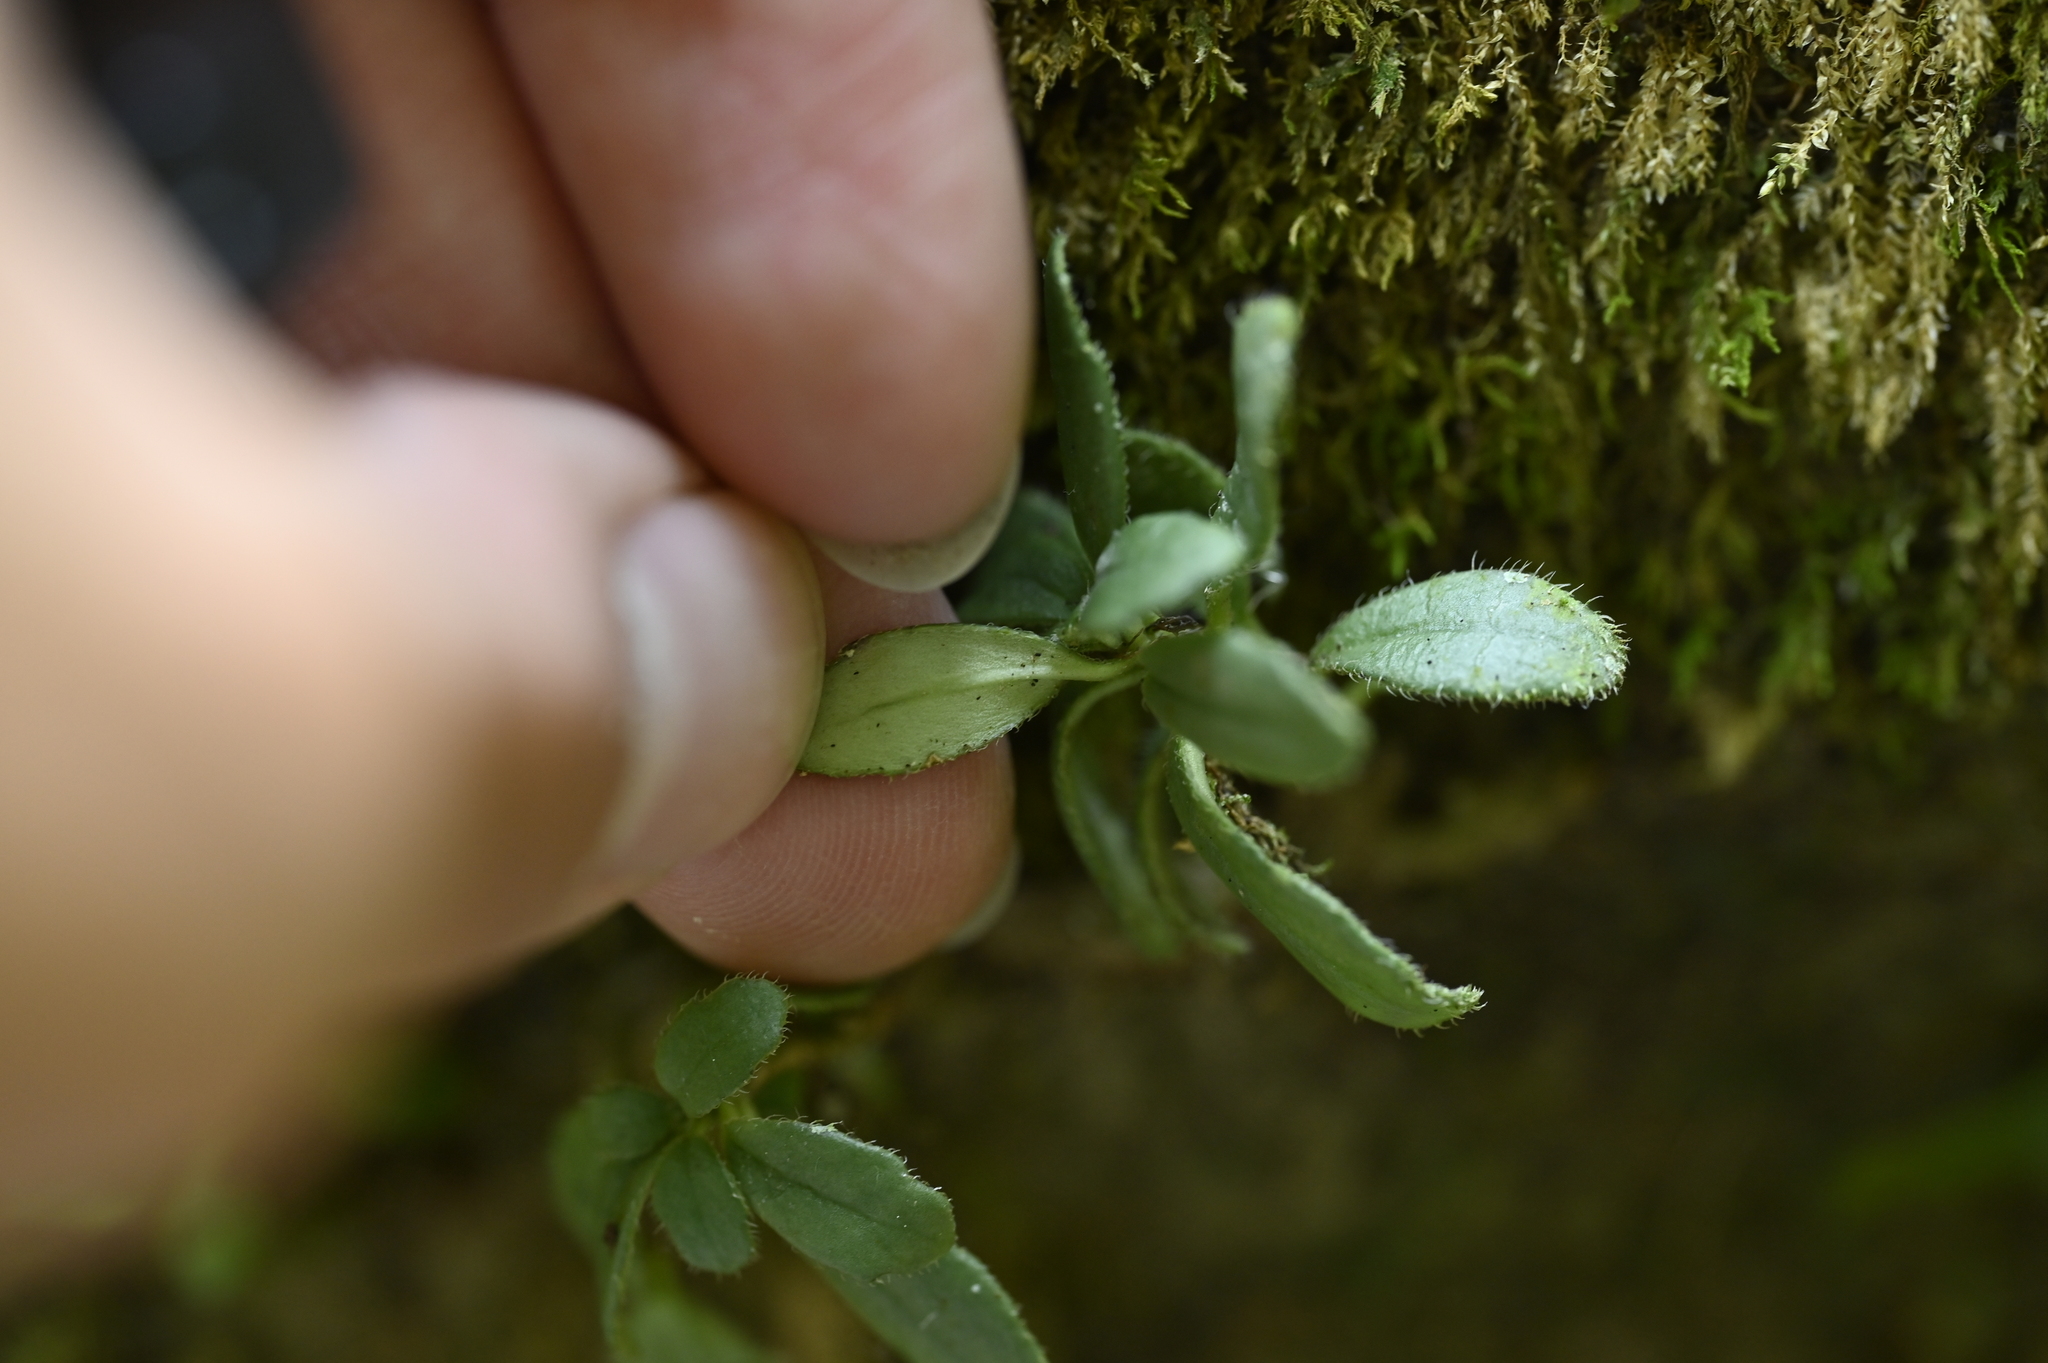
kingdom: Plantae
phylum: Tracheophyta
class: Magnoliopsida
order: Lamiales
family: Gesneriaceae
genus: Lysionotus
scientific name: Lysionotus pauciflorus
